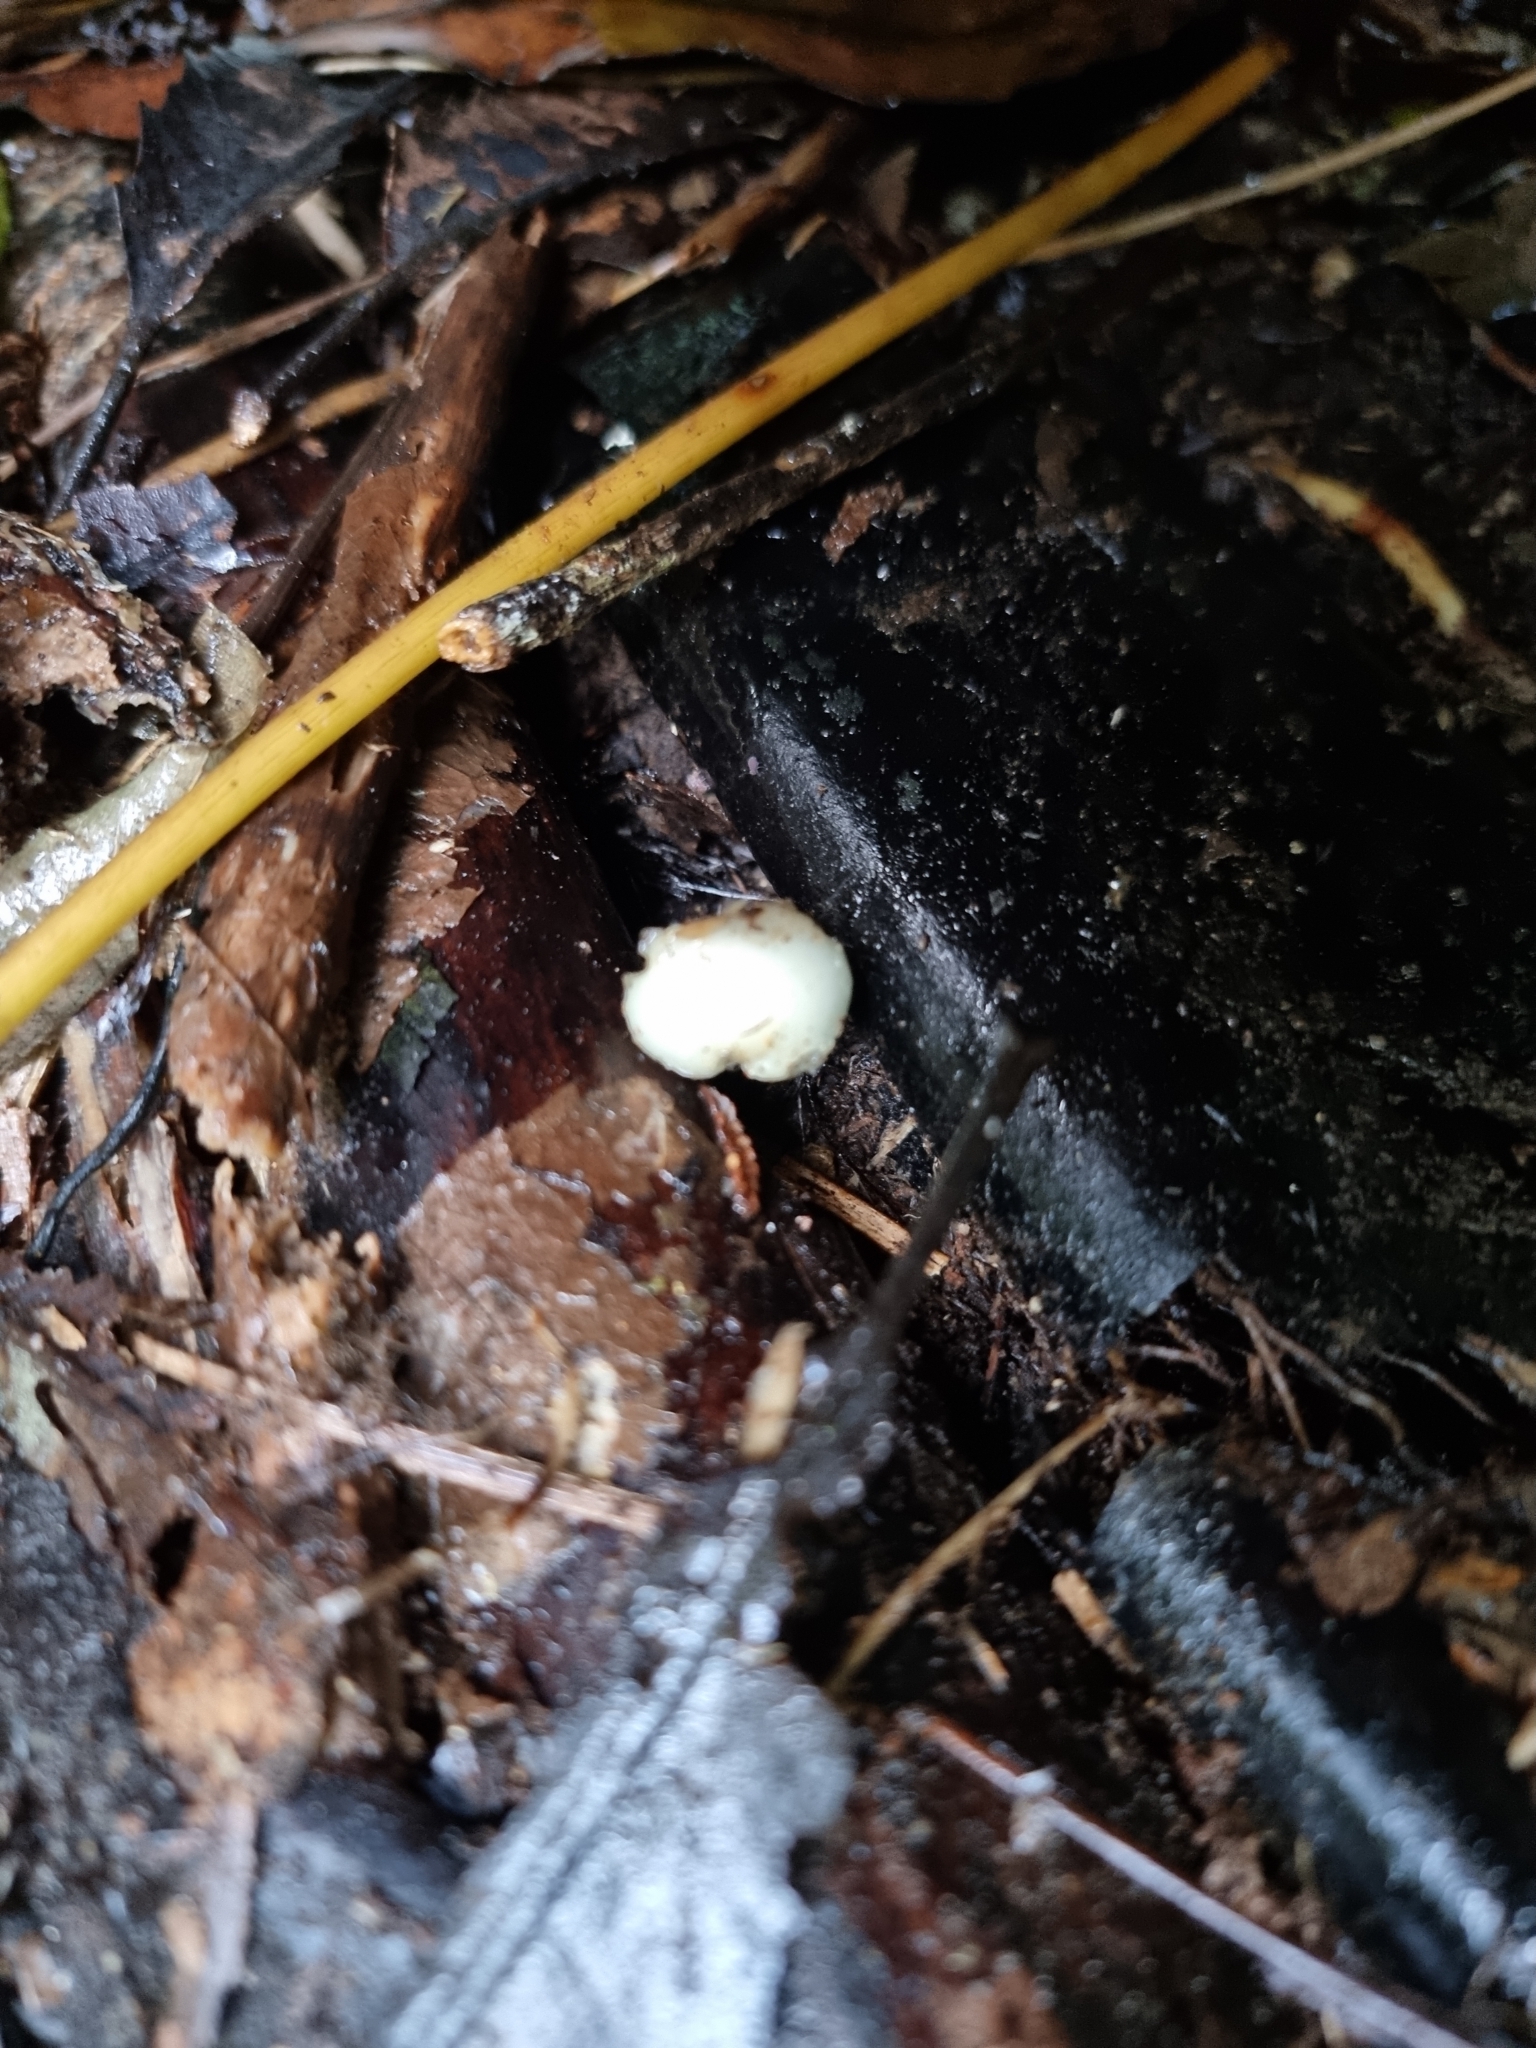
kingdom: Fungi
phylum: Basidiomycota
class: Agaricomycetes
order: Agaricales
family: Hymenogastraceae
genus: Psilocybe
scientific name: Psilocybe weraroa
